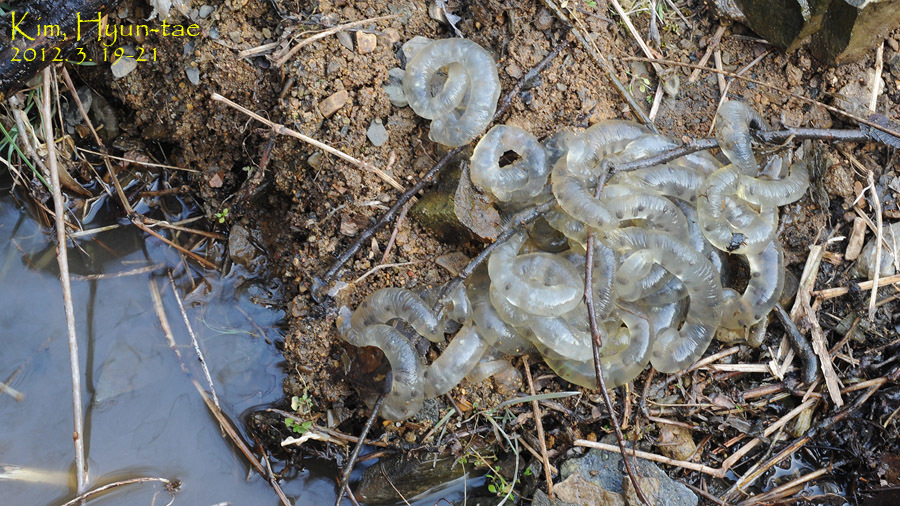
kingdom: Animalia
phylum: Chordata
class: Amphibia
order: Caudata
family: Hynobiidae
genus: Hynobius
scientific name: Hynobius leechii
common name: Gensan salamander
